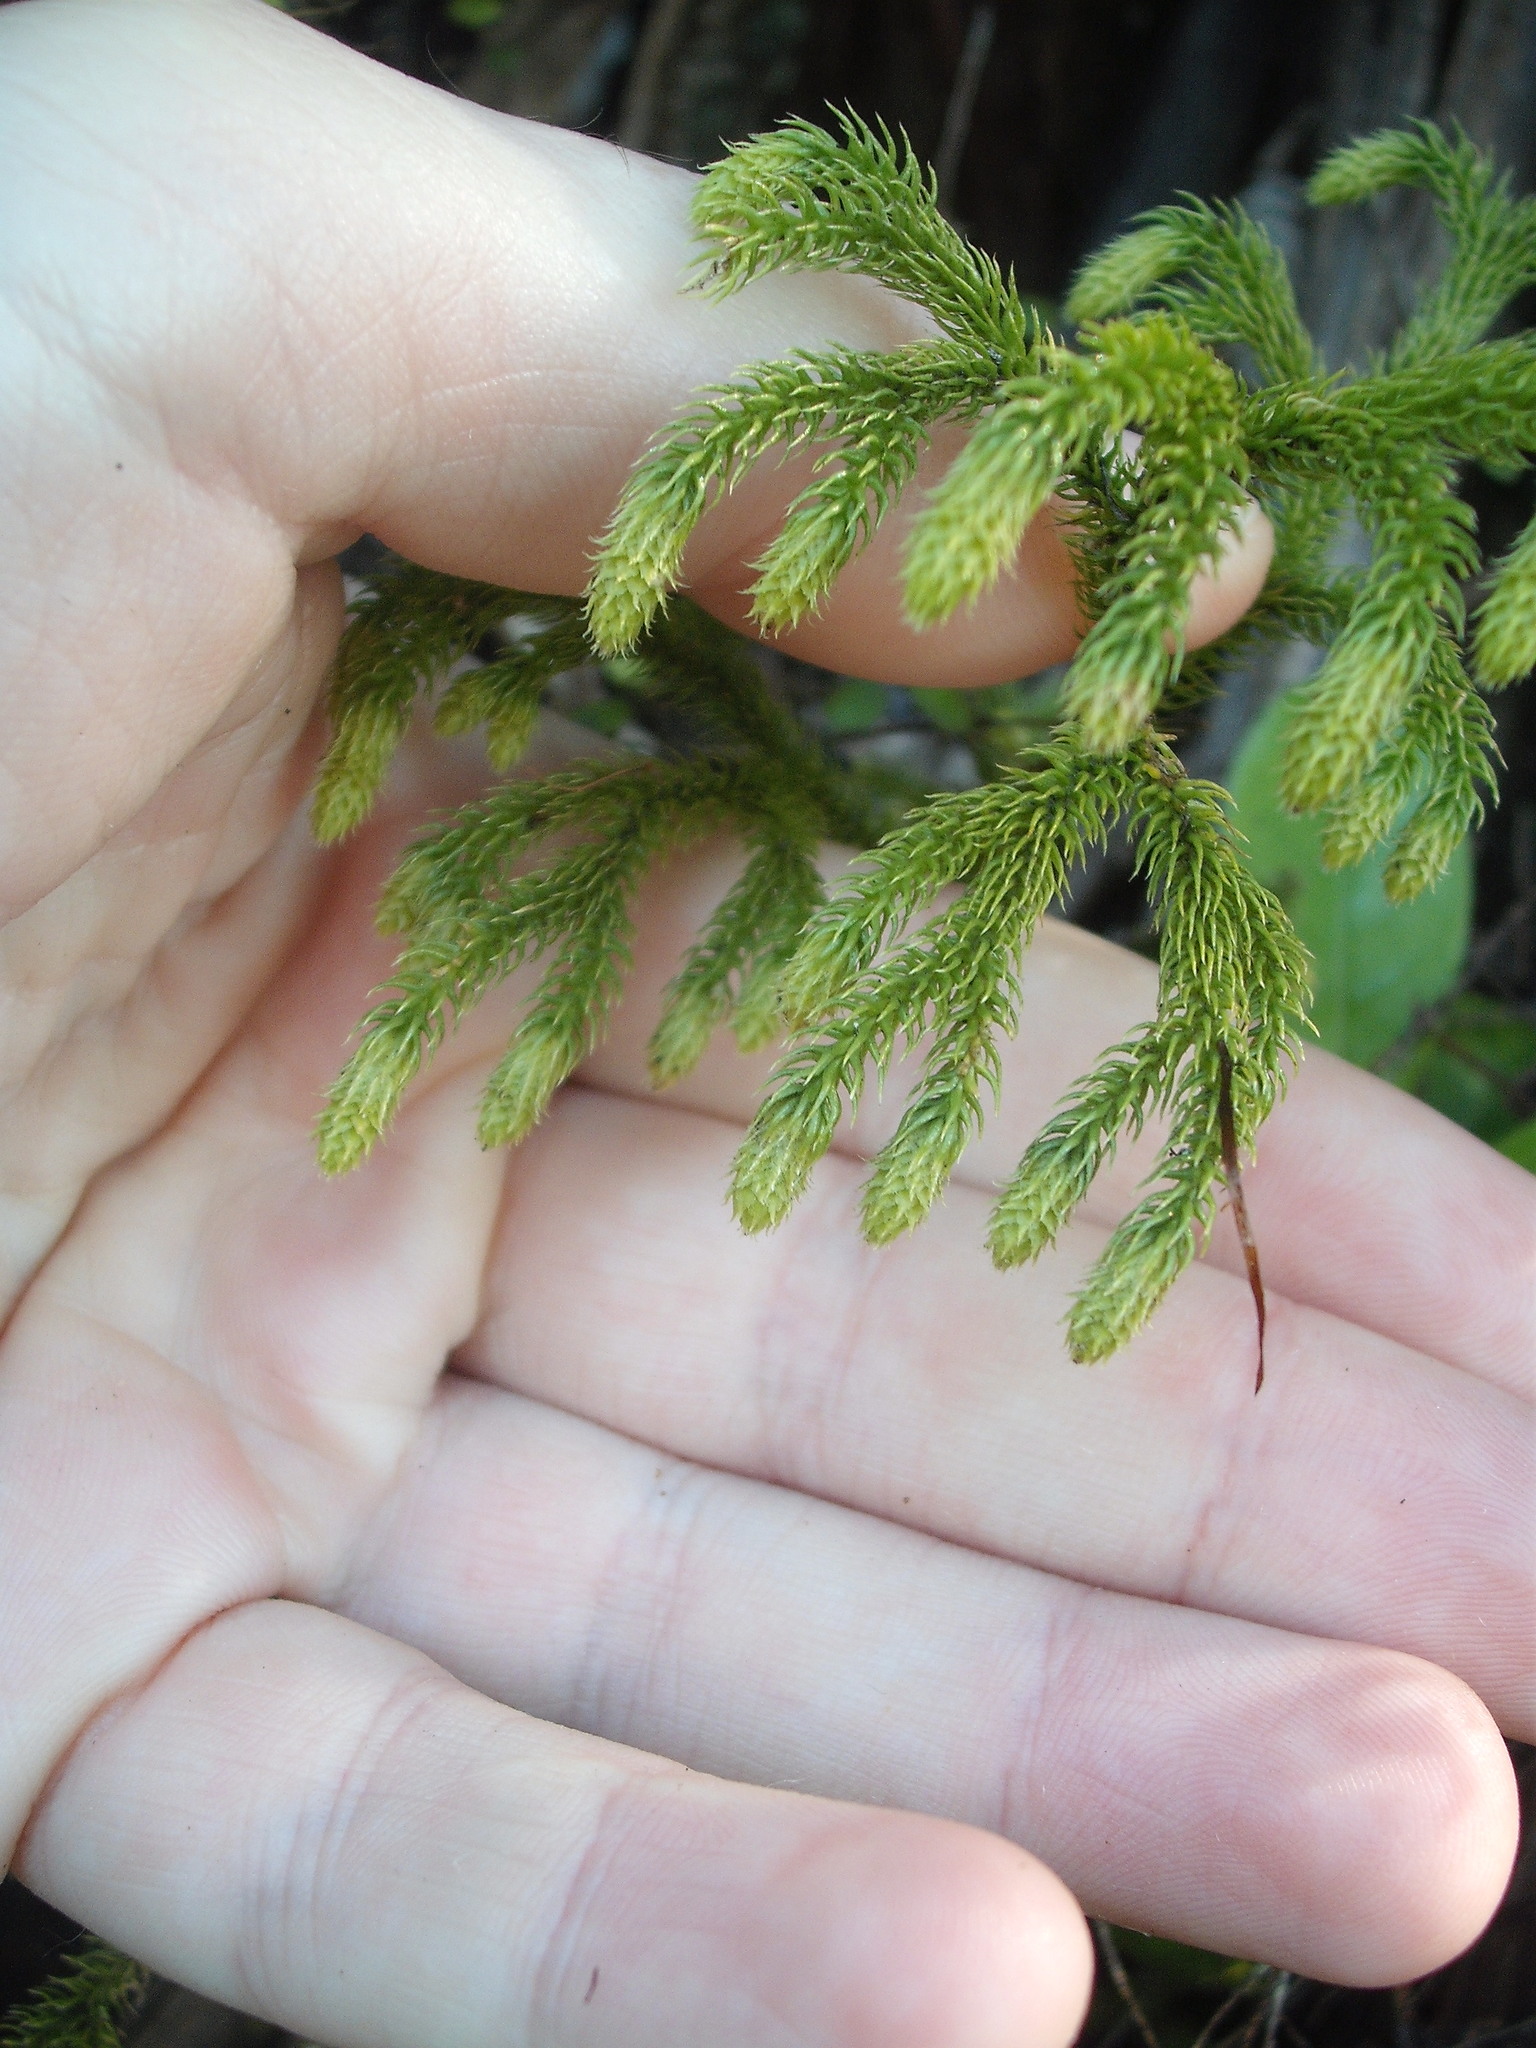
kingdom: Plantae
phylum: Tracheophyta
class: Lycopodiopsida
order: Lycopodiales
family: Lycopodiaceae
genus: Palhinhaea
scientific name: Palhinhaea cernua
